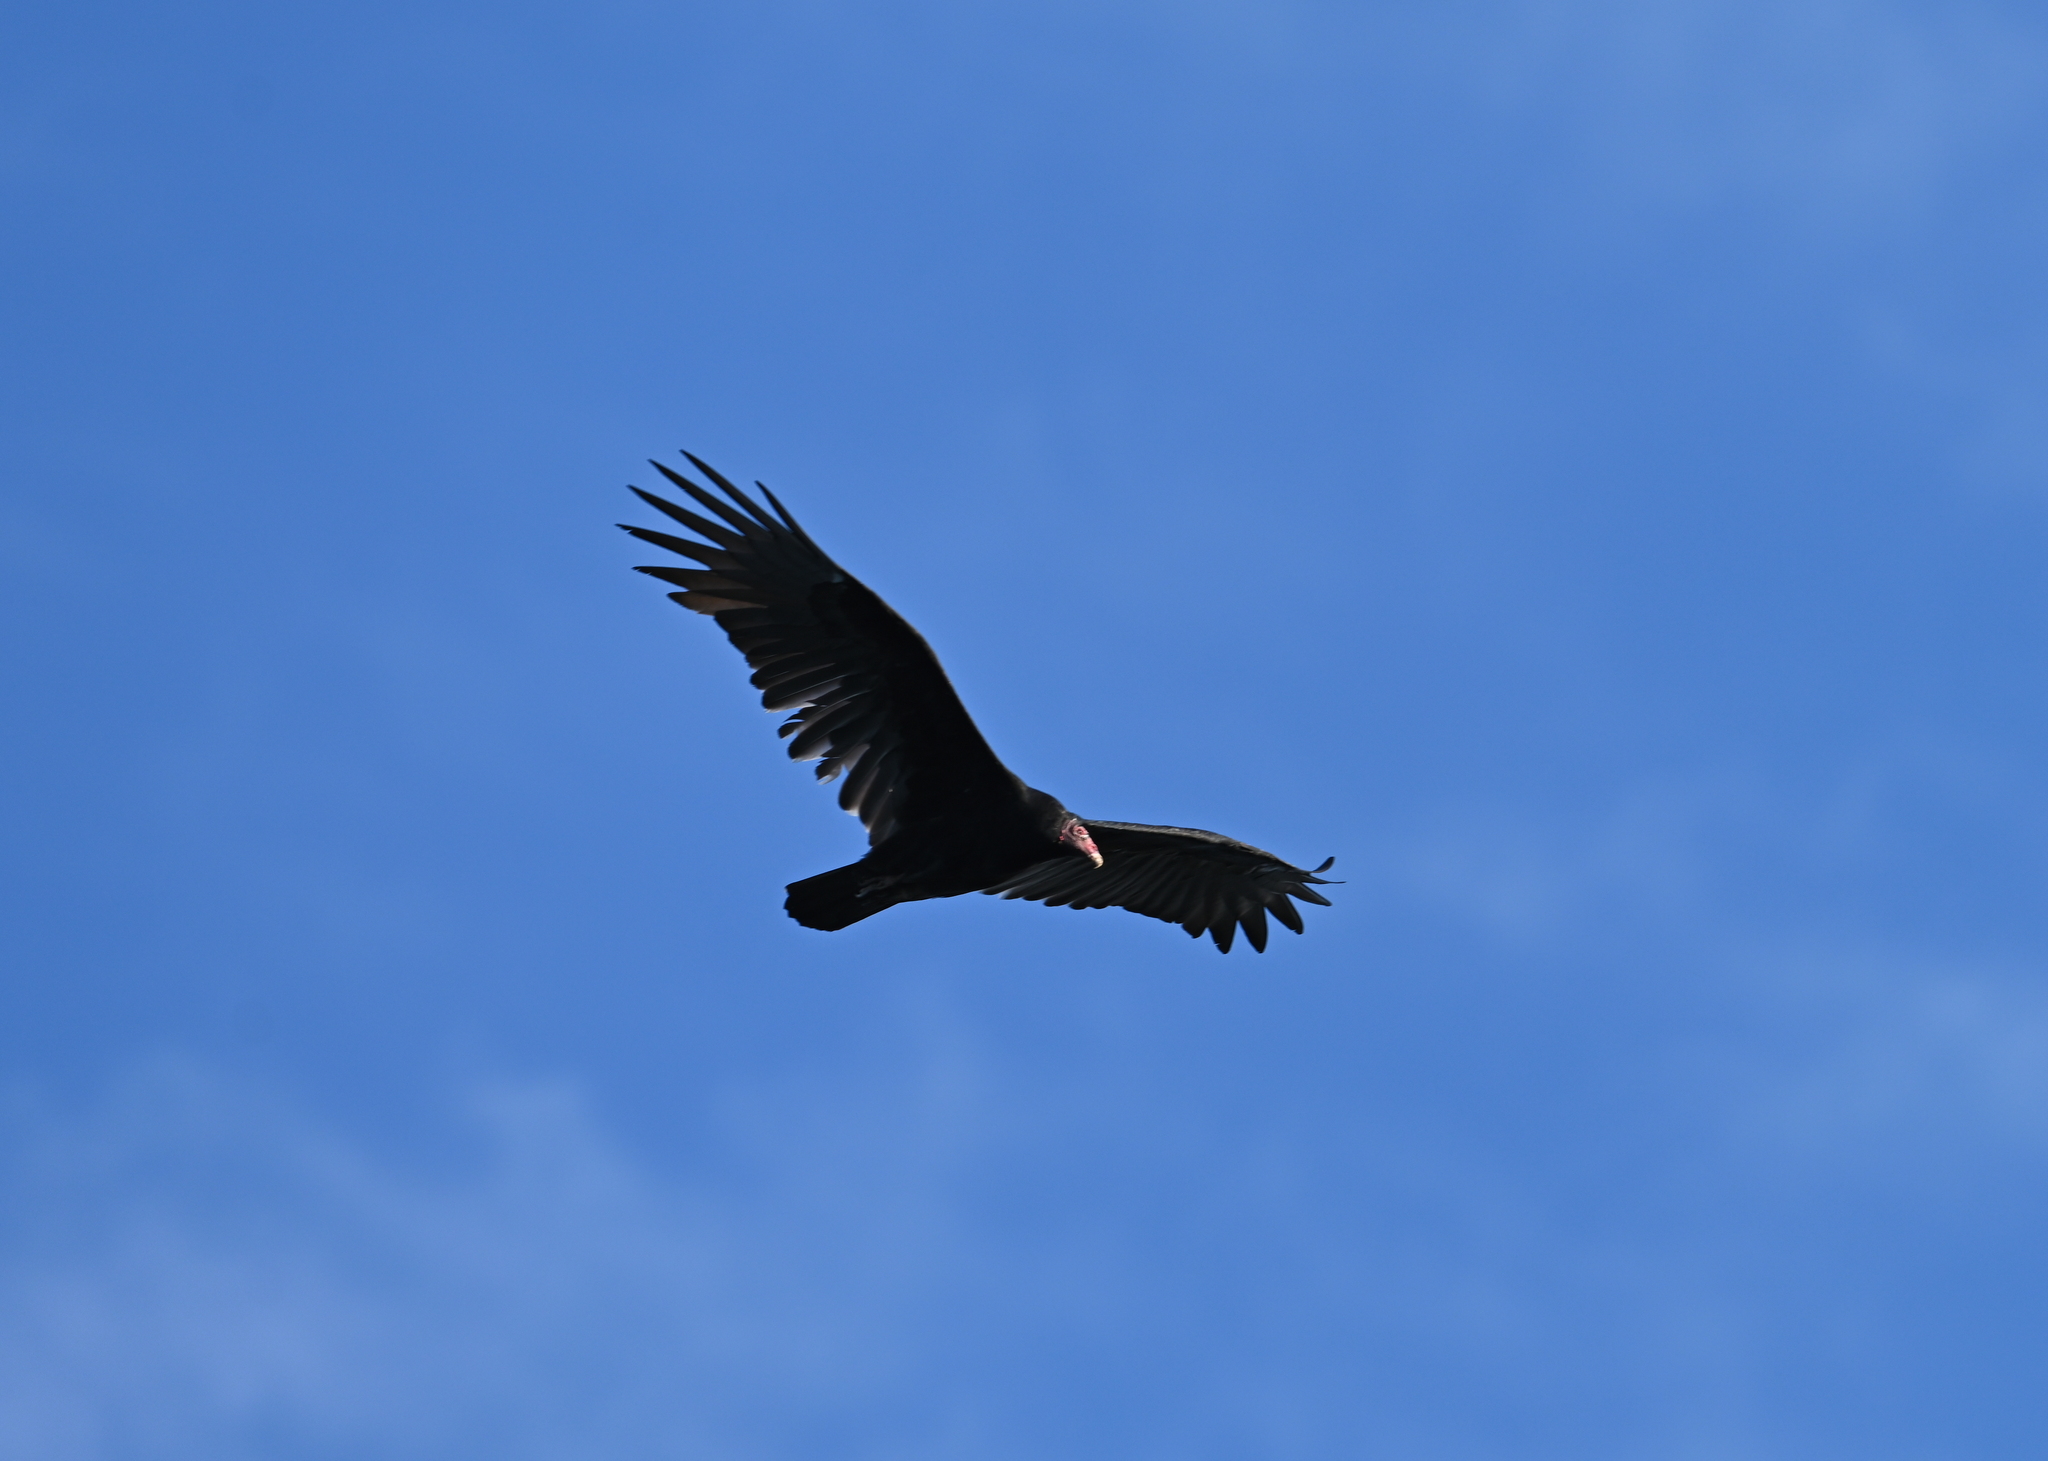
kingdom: Animalia
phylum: Chordata
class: Aves
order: Accipitriformes
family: Cathartidae
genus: Cathartes
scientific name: Cathartes aura
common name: Turkey vulture
